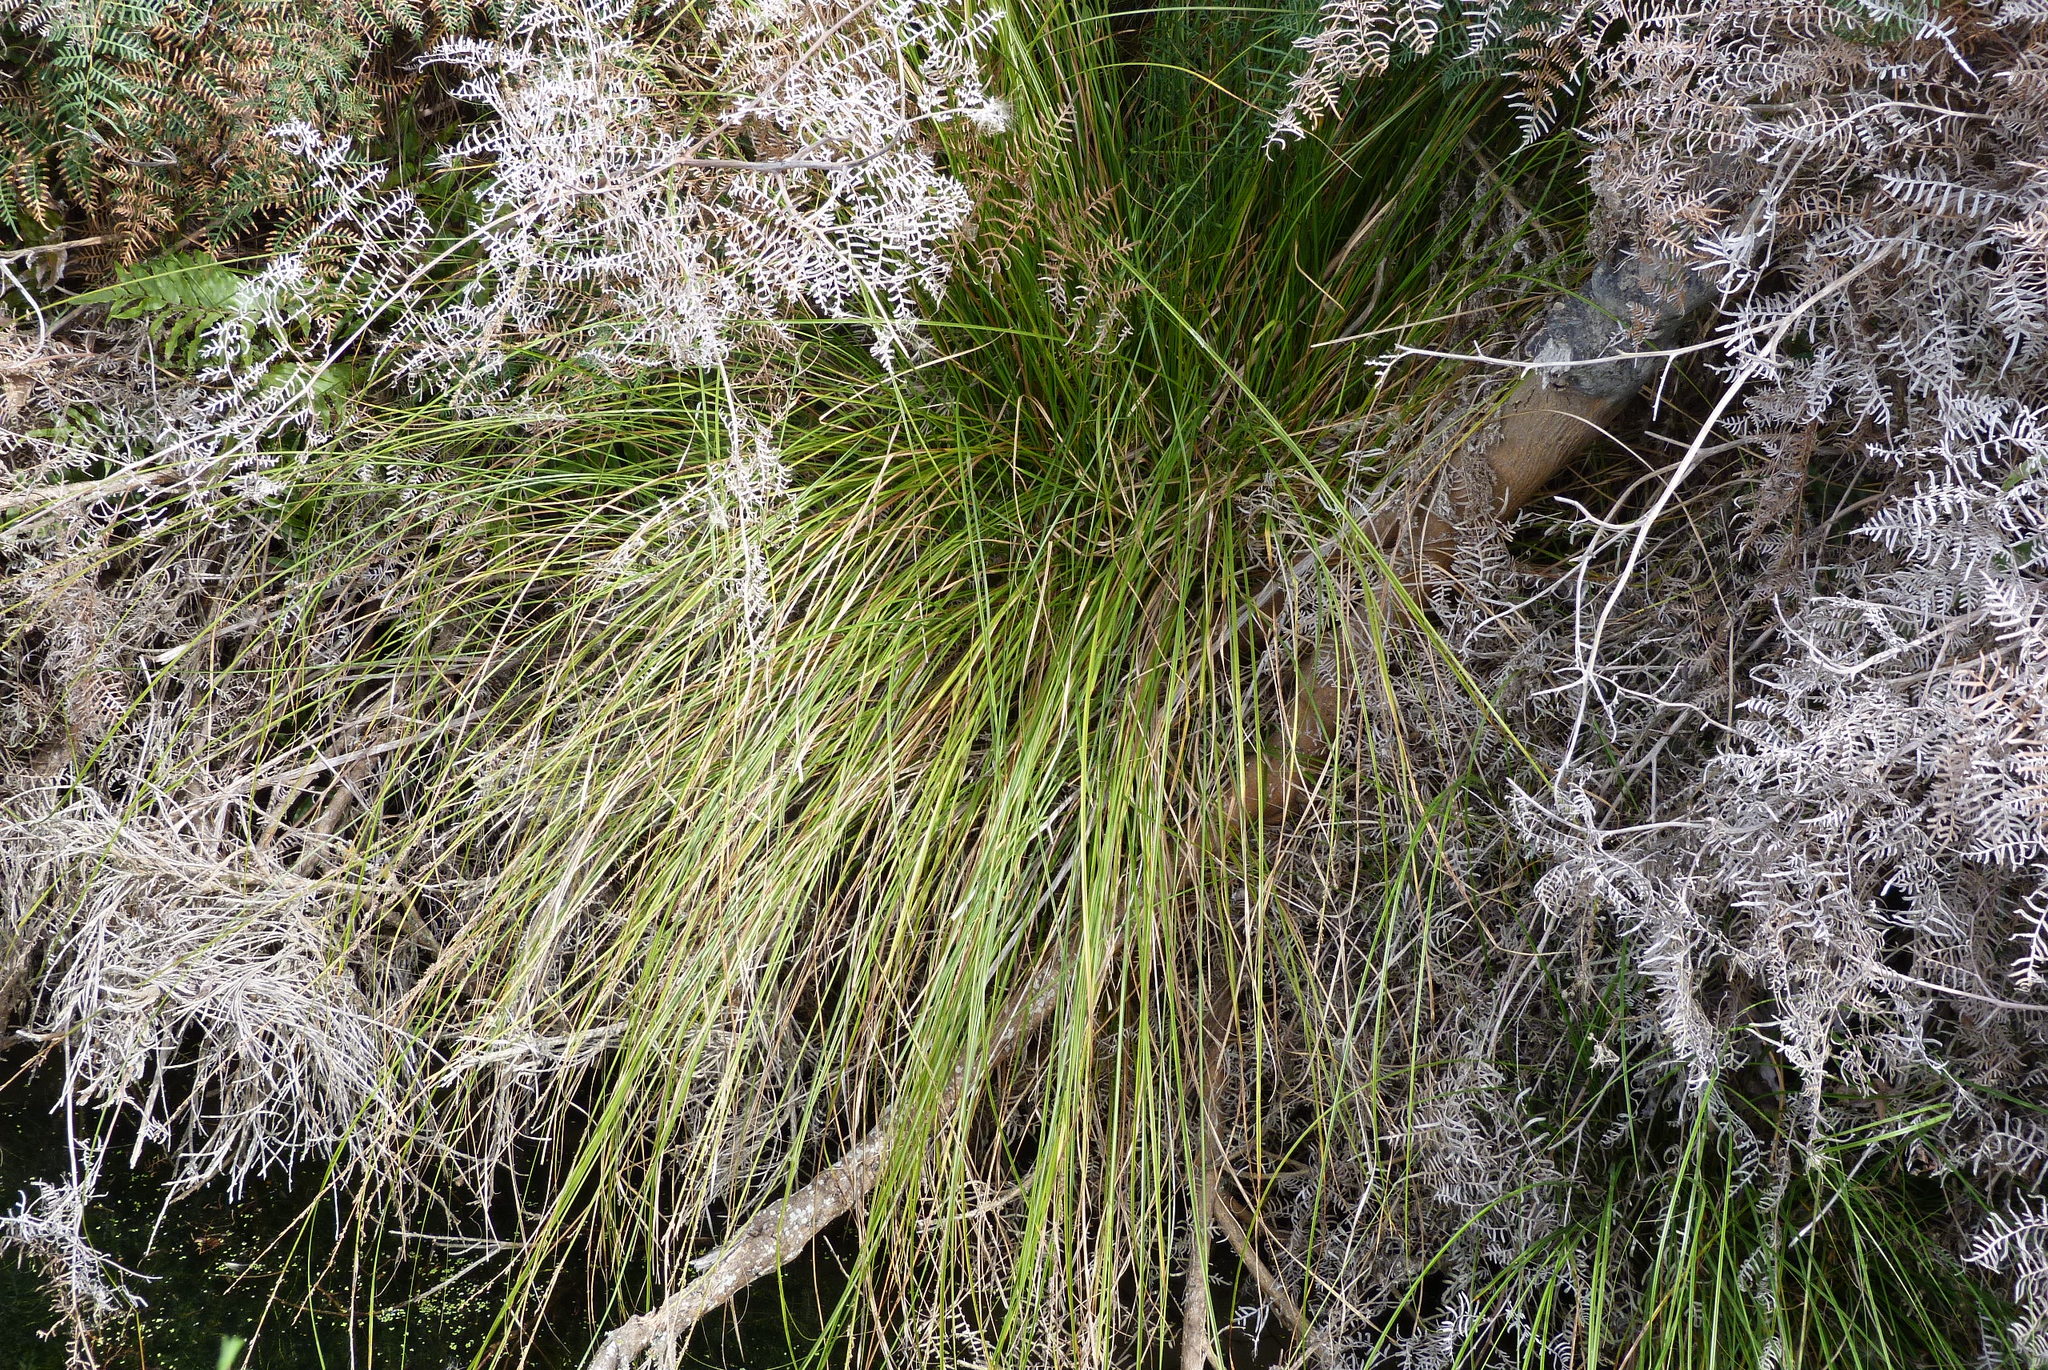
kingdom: Plantae
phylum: Tracheophyta
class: Liliopsida
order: Poales
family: Cyperaceae
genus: Carex
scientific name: Carex virgata
